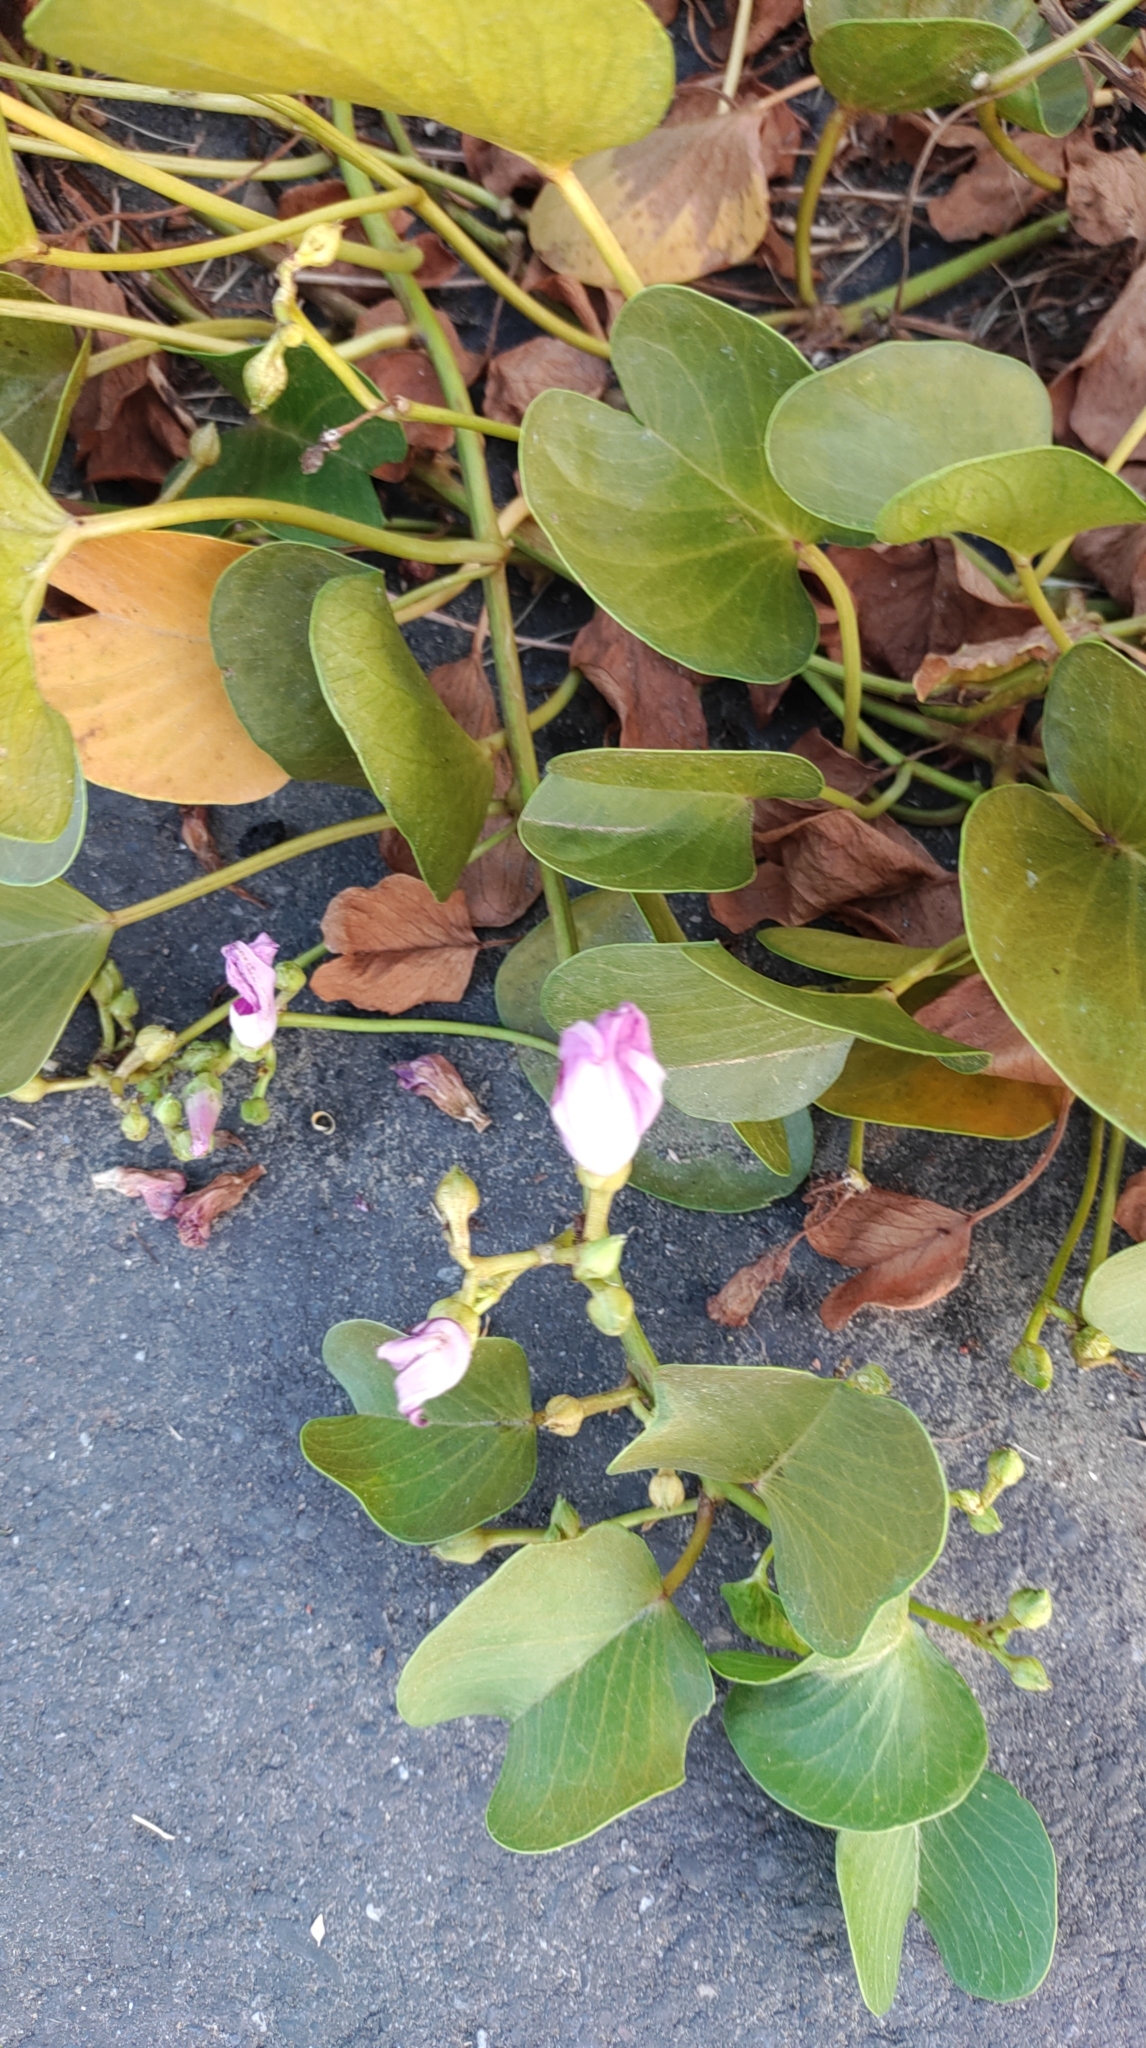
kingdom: Plantae
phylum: Tracheophyta
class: Magnoliopsida
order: Solanales
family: Convolvulaceae
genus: Ipomoea
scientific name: Ipomoea pes-caprae
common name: Beach morning glory
